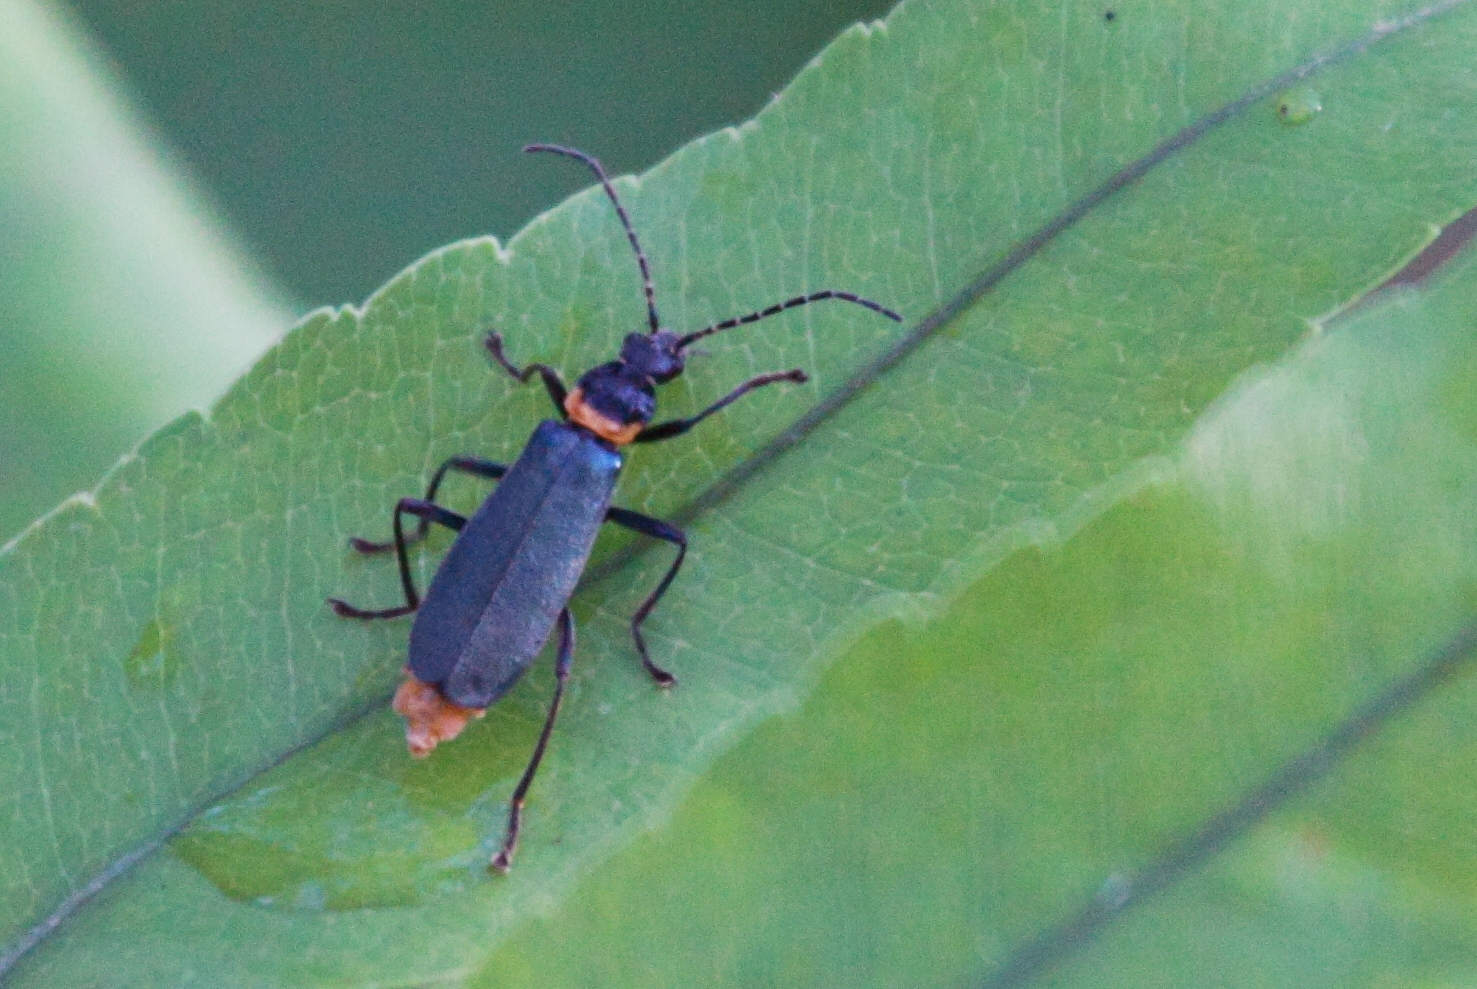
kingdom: Animalia
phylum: Arthropoda
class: Insecta
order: Coleoptera
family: Cantharidae
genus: Chauliognathus
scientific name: Chauliognathus
